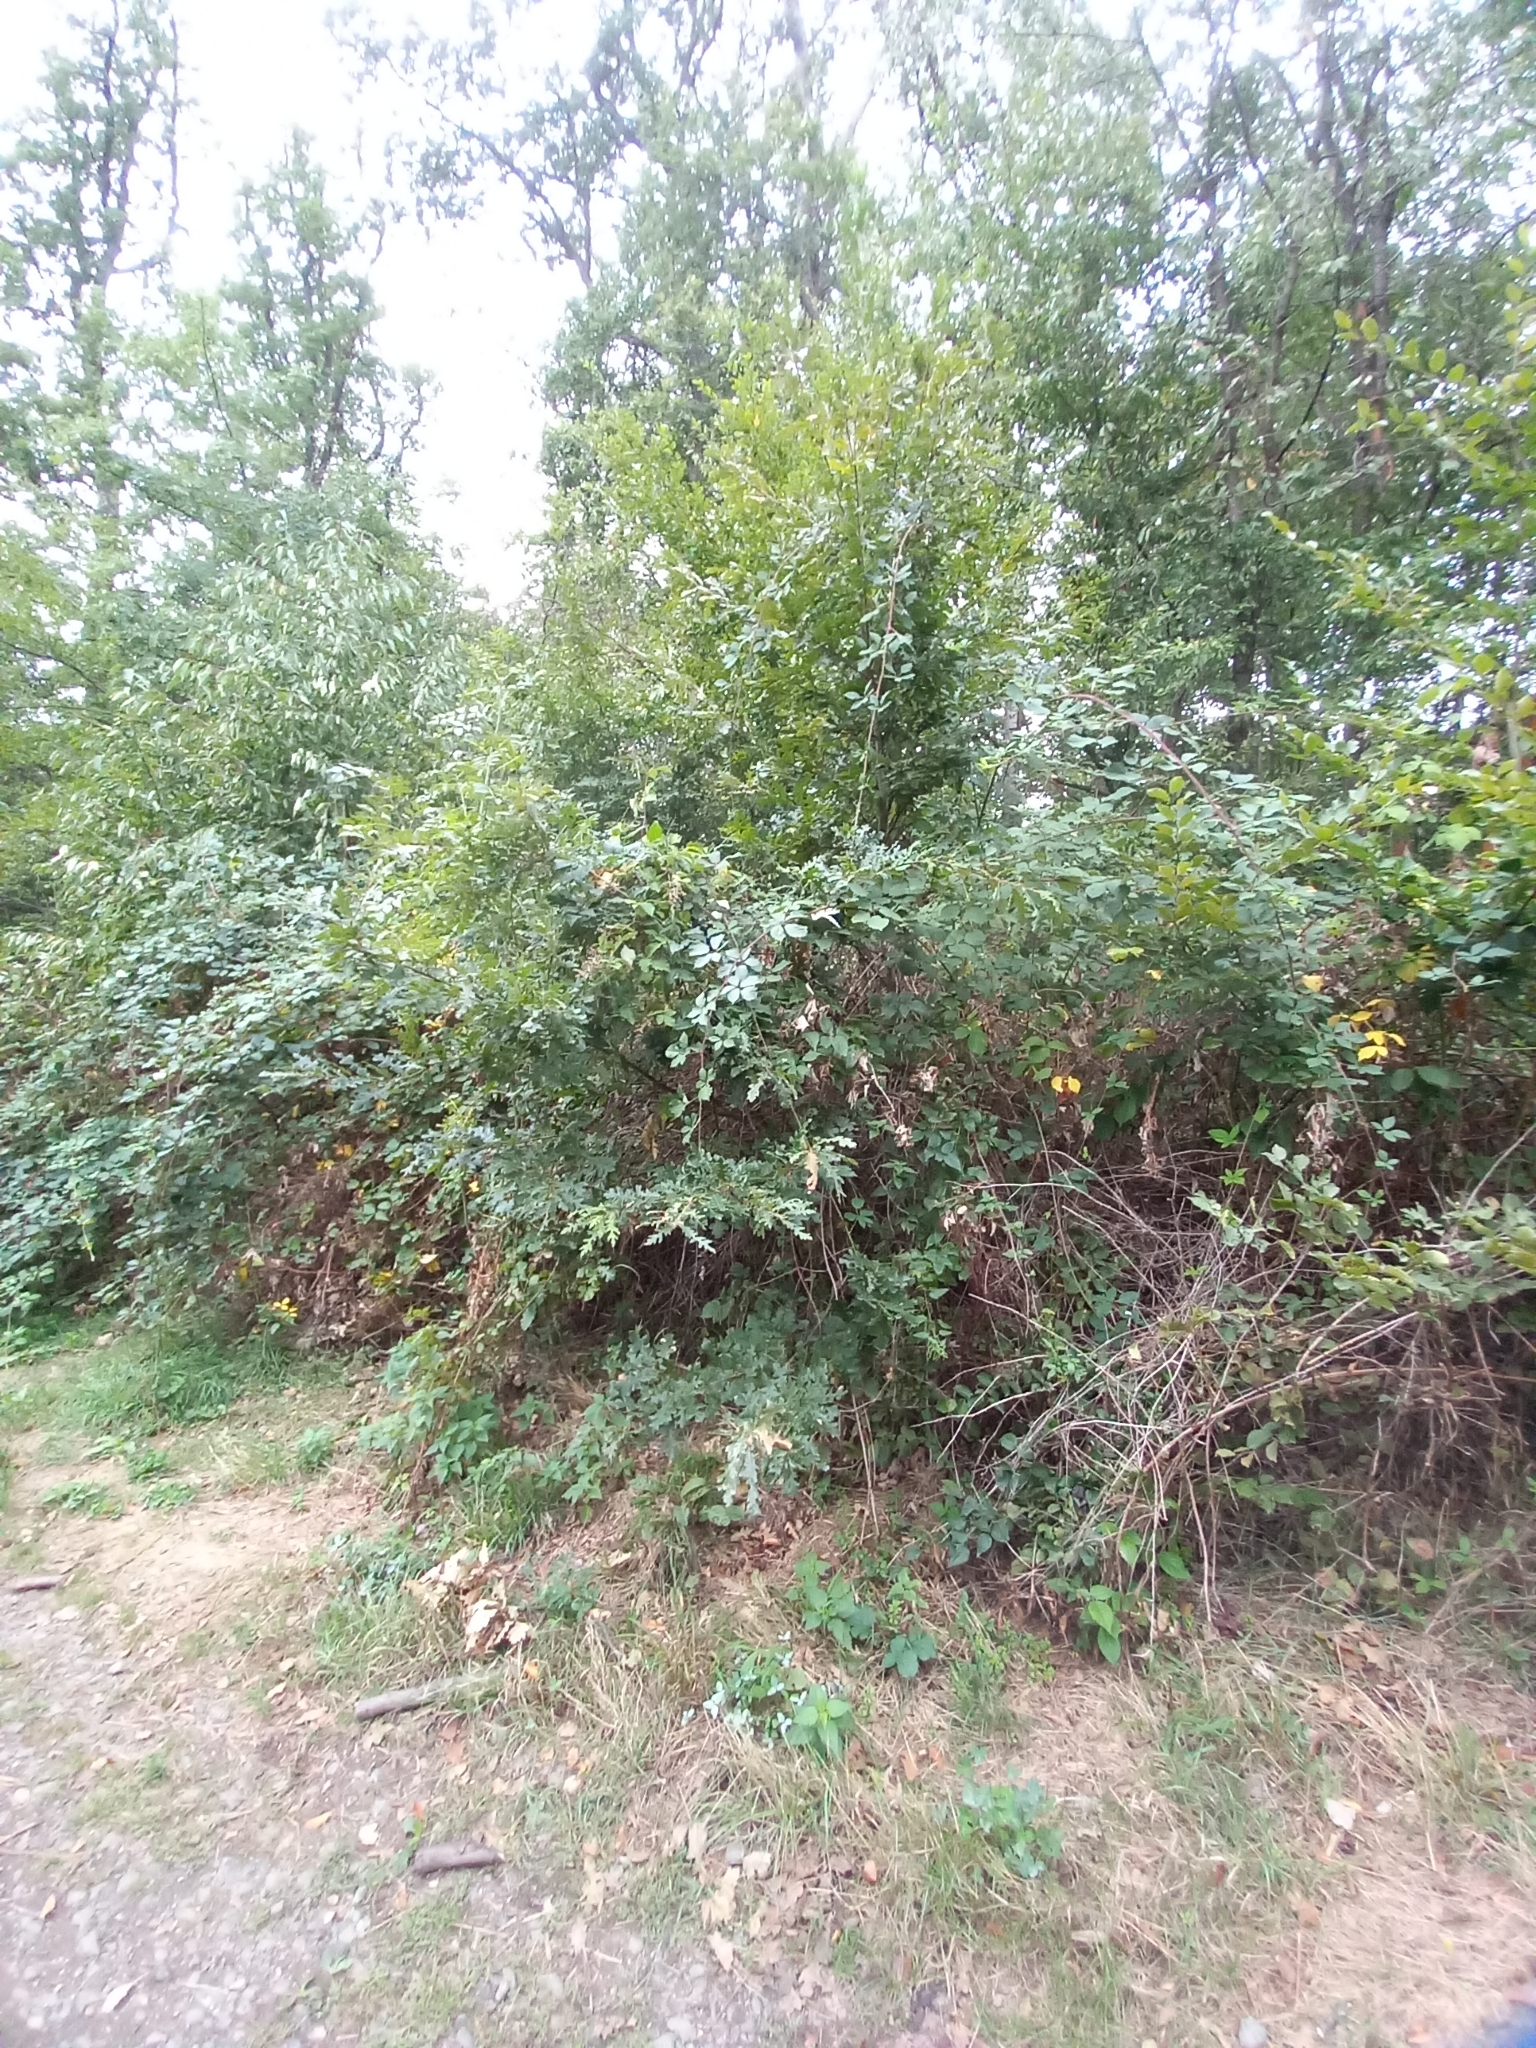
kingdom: Plantae
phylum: Tracheophyta
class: Magnoliopsida
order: Fagales
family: Fagaceae
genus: Quercus
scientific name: Quercus cerris
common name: Turkey oak
